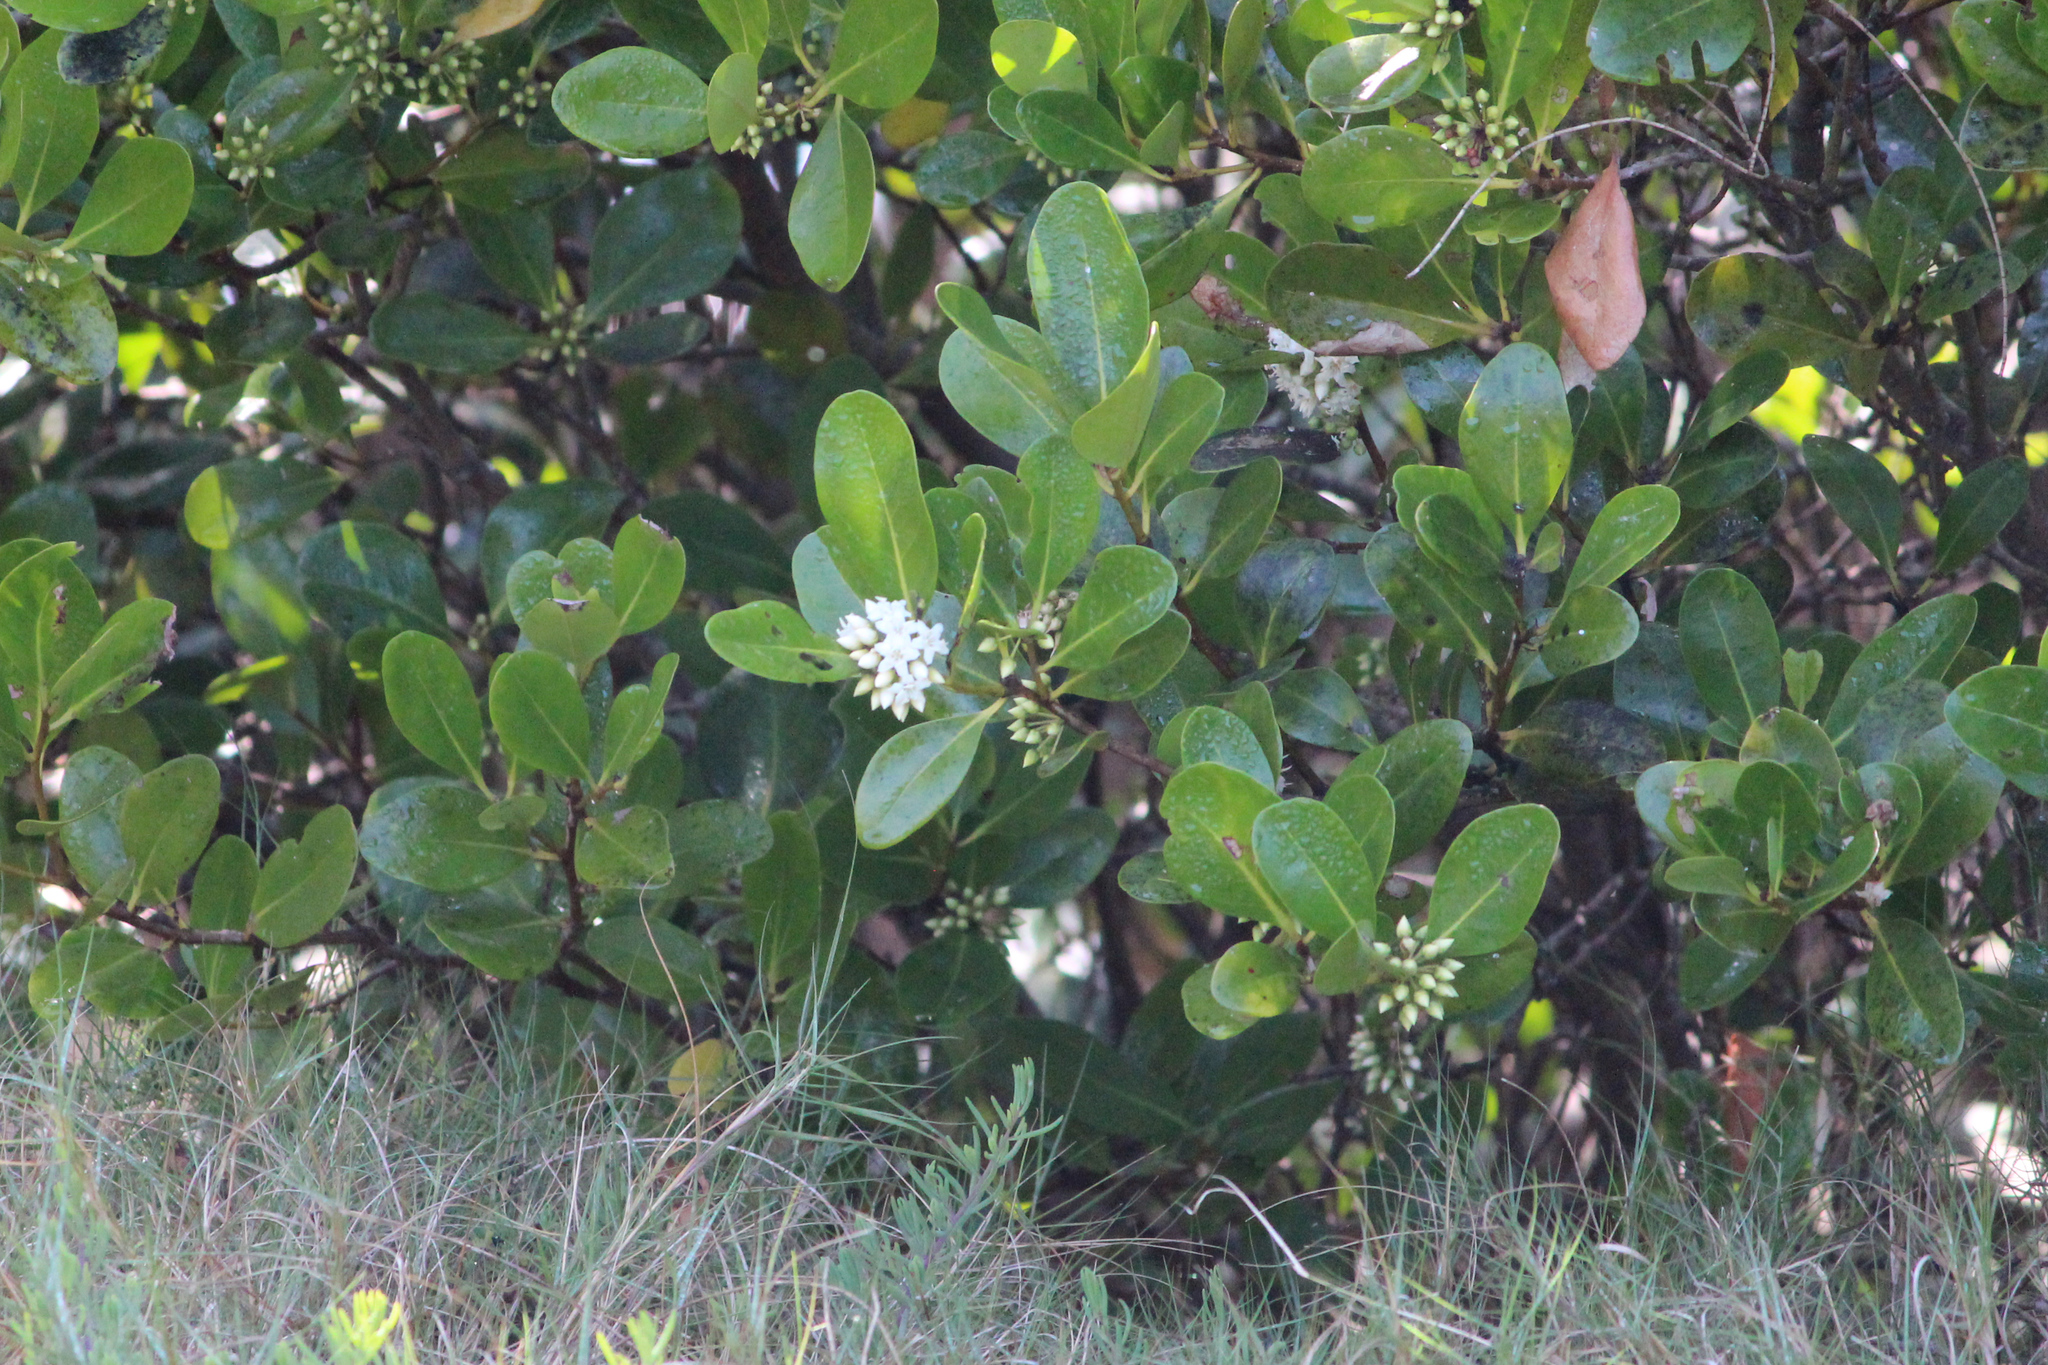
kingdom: Plantae
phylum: Tracheophyta
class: Magnoliopsida
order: Ericales
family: Primulaceae
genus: Aegiceras
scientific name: Aegiceras corniculatum
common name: River mangrove
